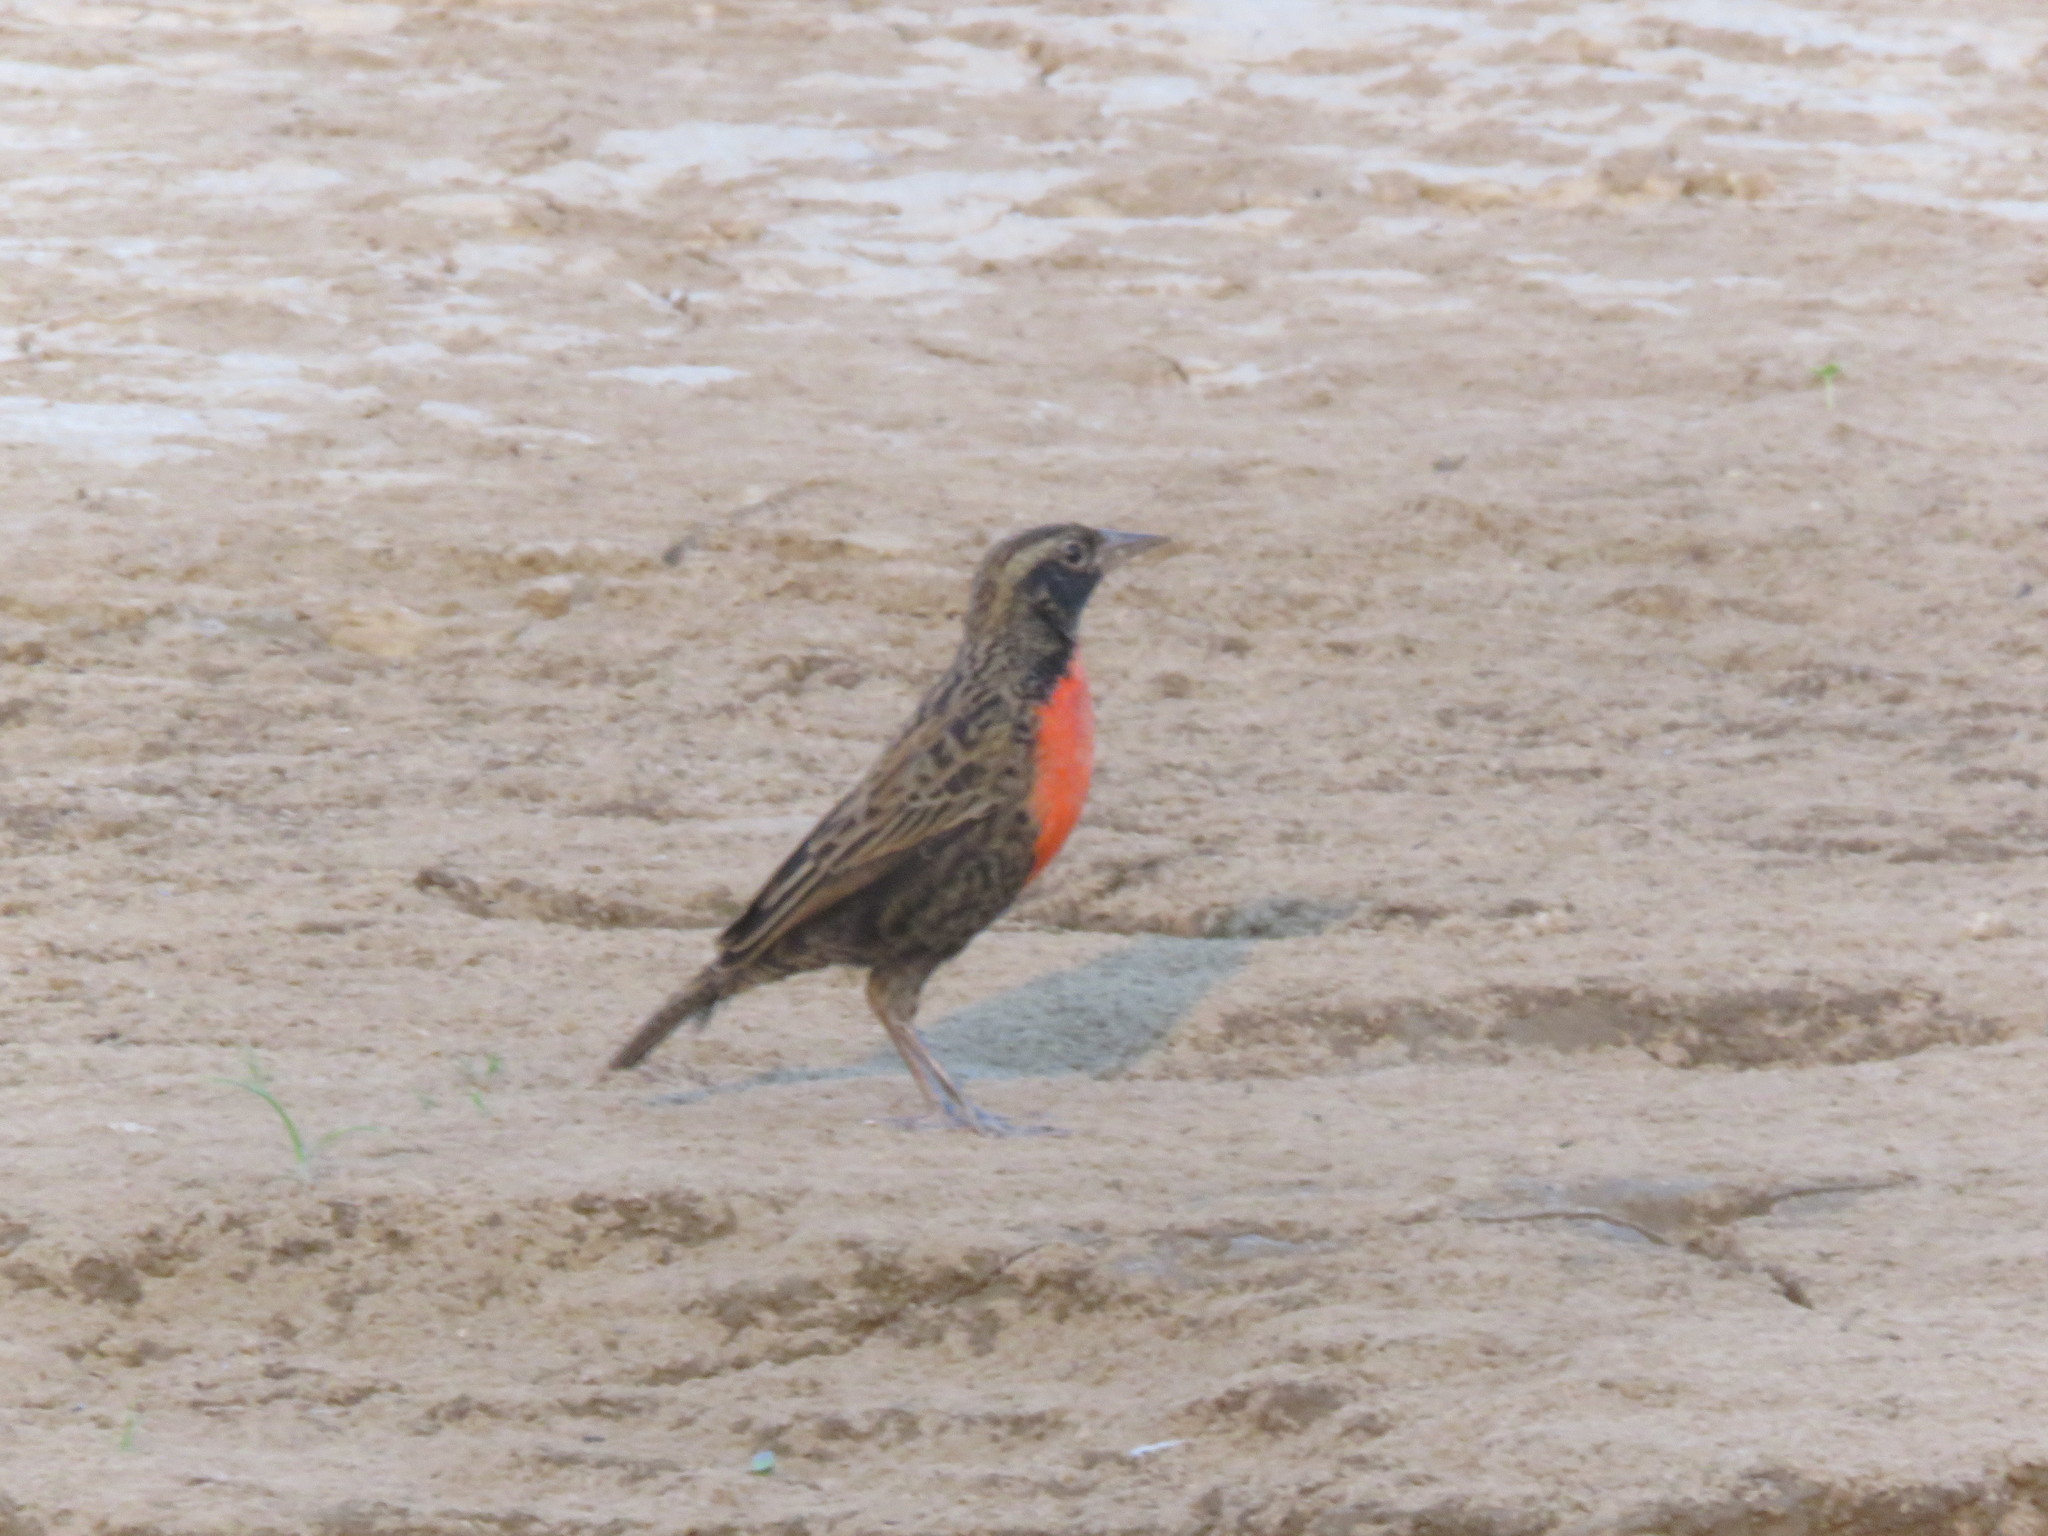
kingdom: Animalia
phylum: Chordata
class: Aves
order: Passeriformes
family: Icteridae
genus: Sturnella
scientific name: Sturnella superciliaris
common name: White-browed blackbird
